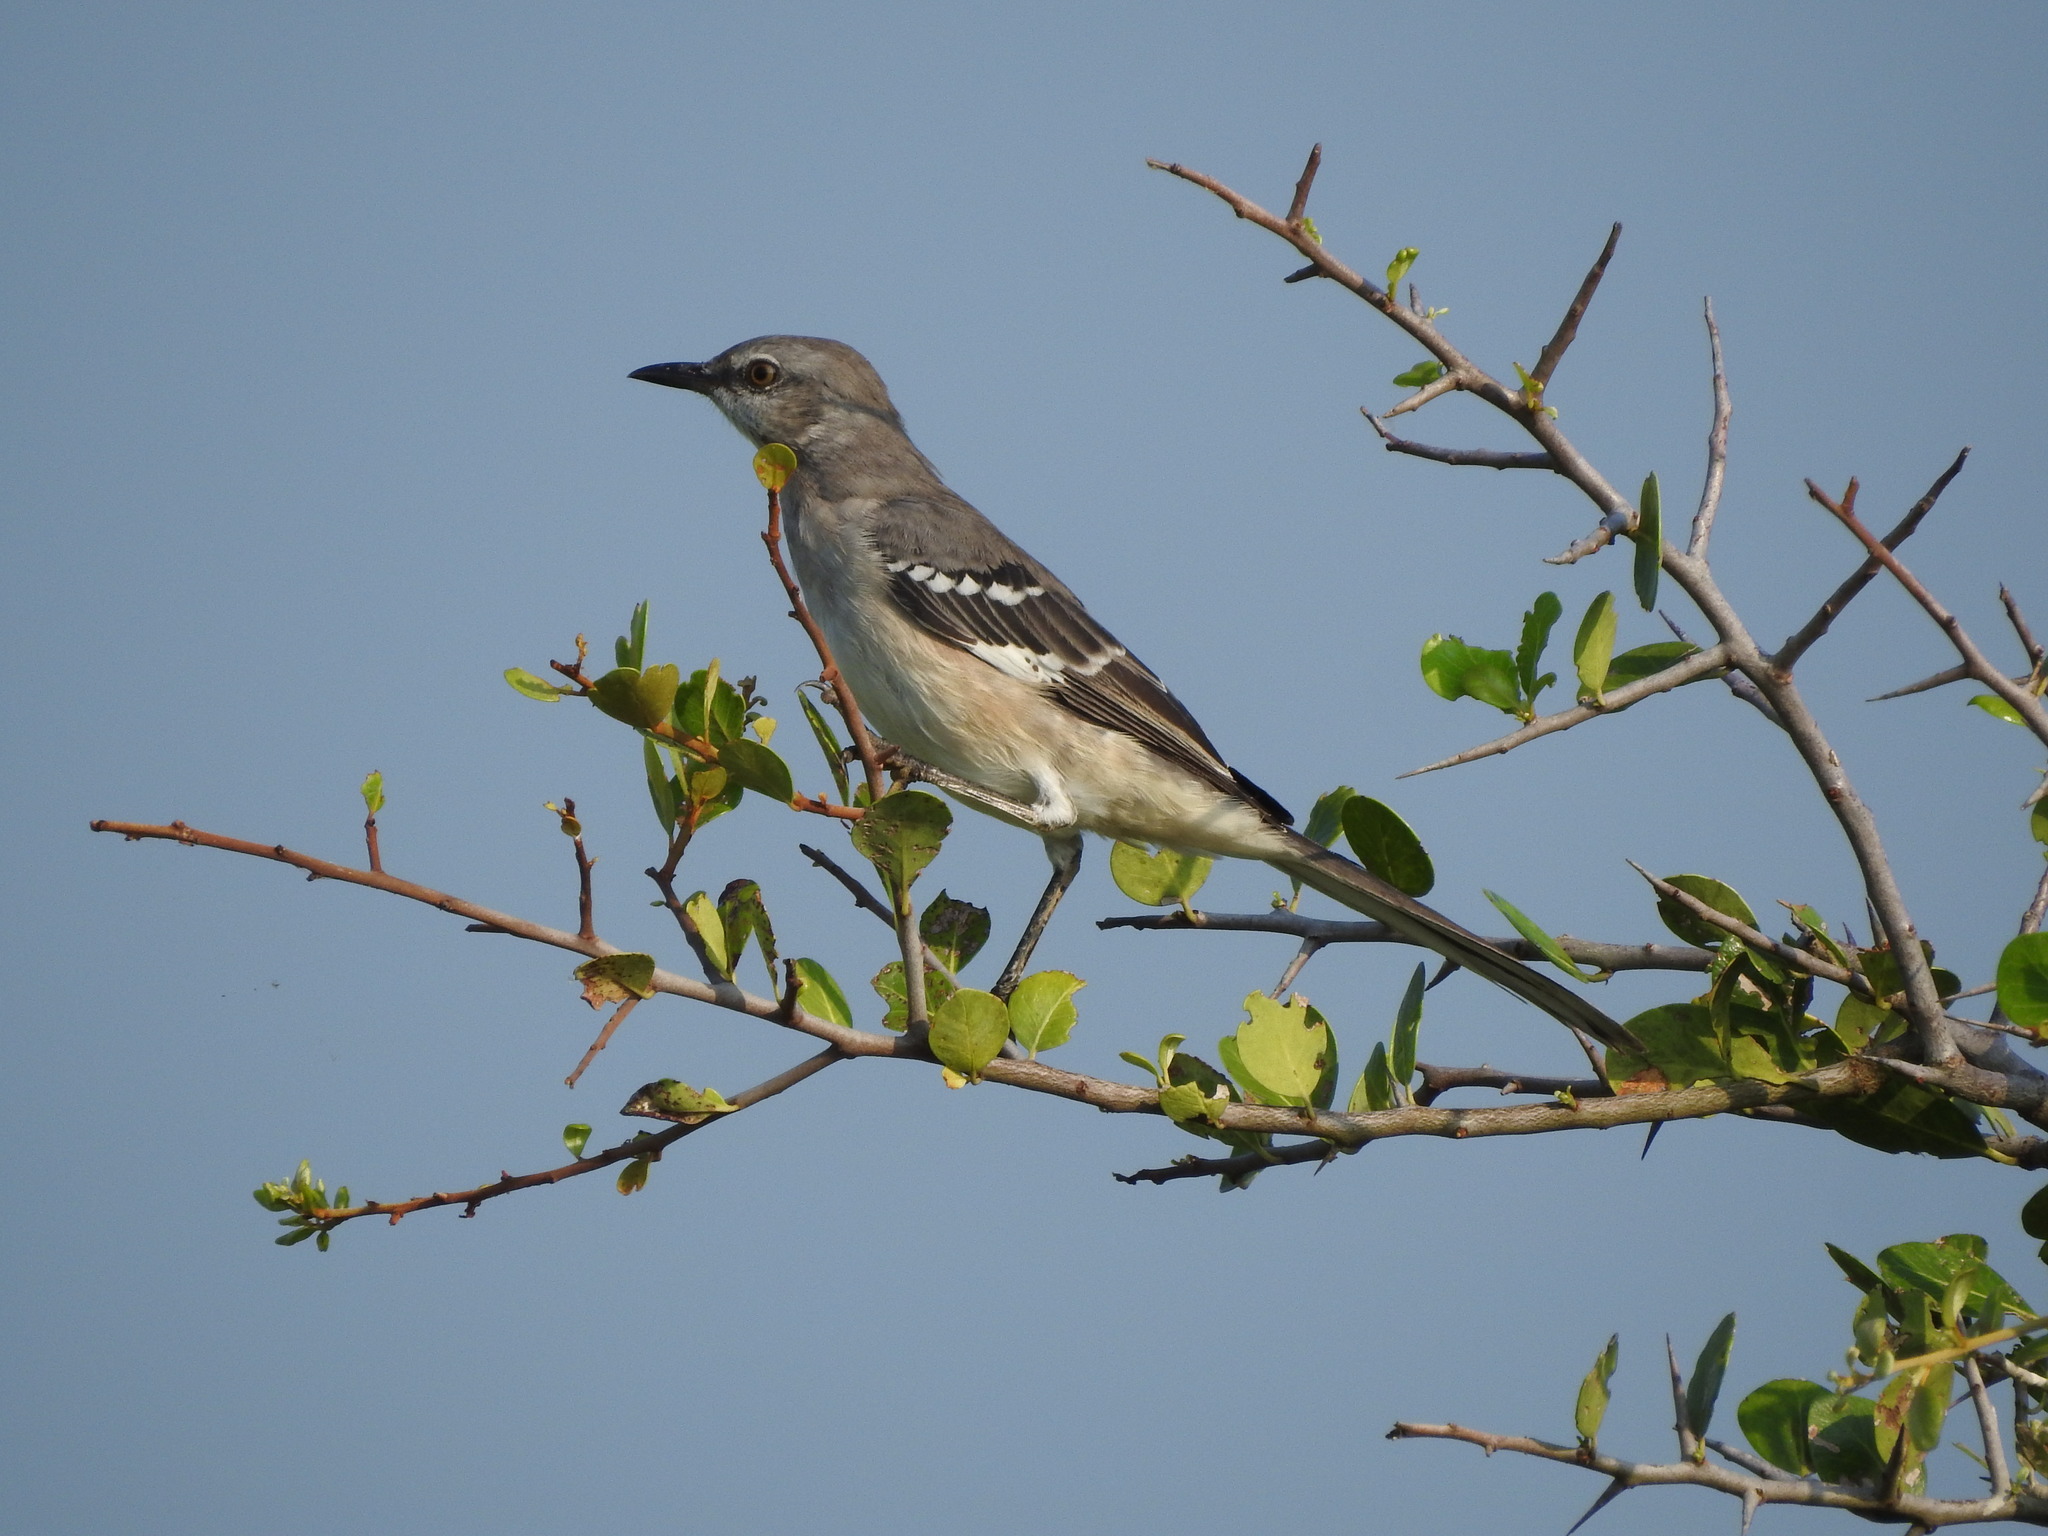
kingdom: Animalia
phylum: Chordata
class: Aves
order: Passeriformes
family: Mimidae
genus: Mimus
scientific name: Mimus polyglottos
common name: Northern mockingbird
